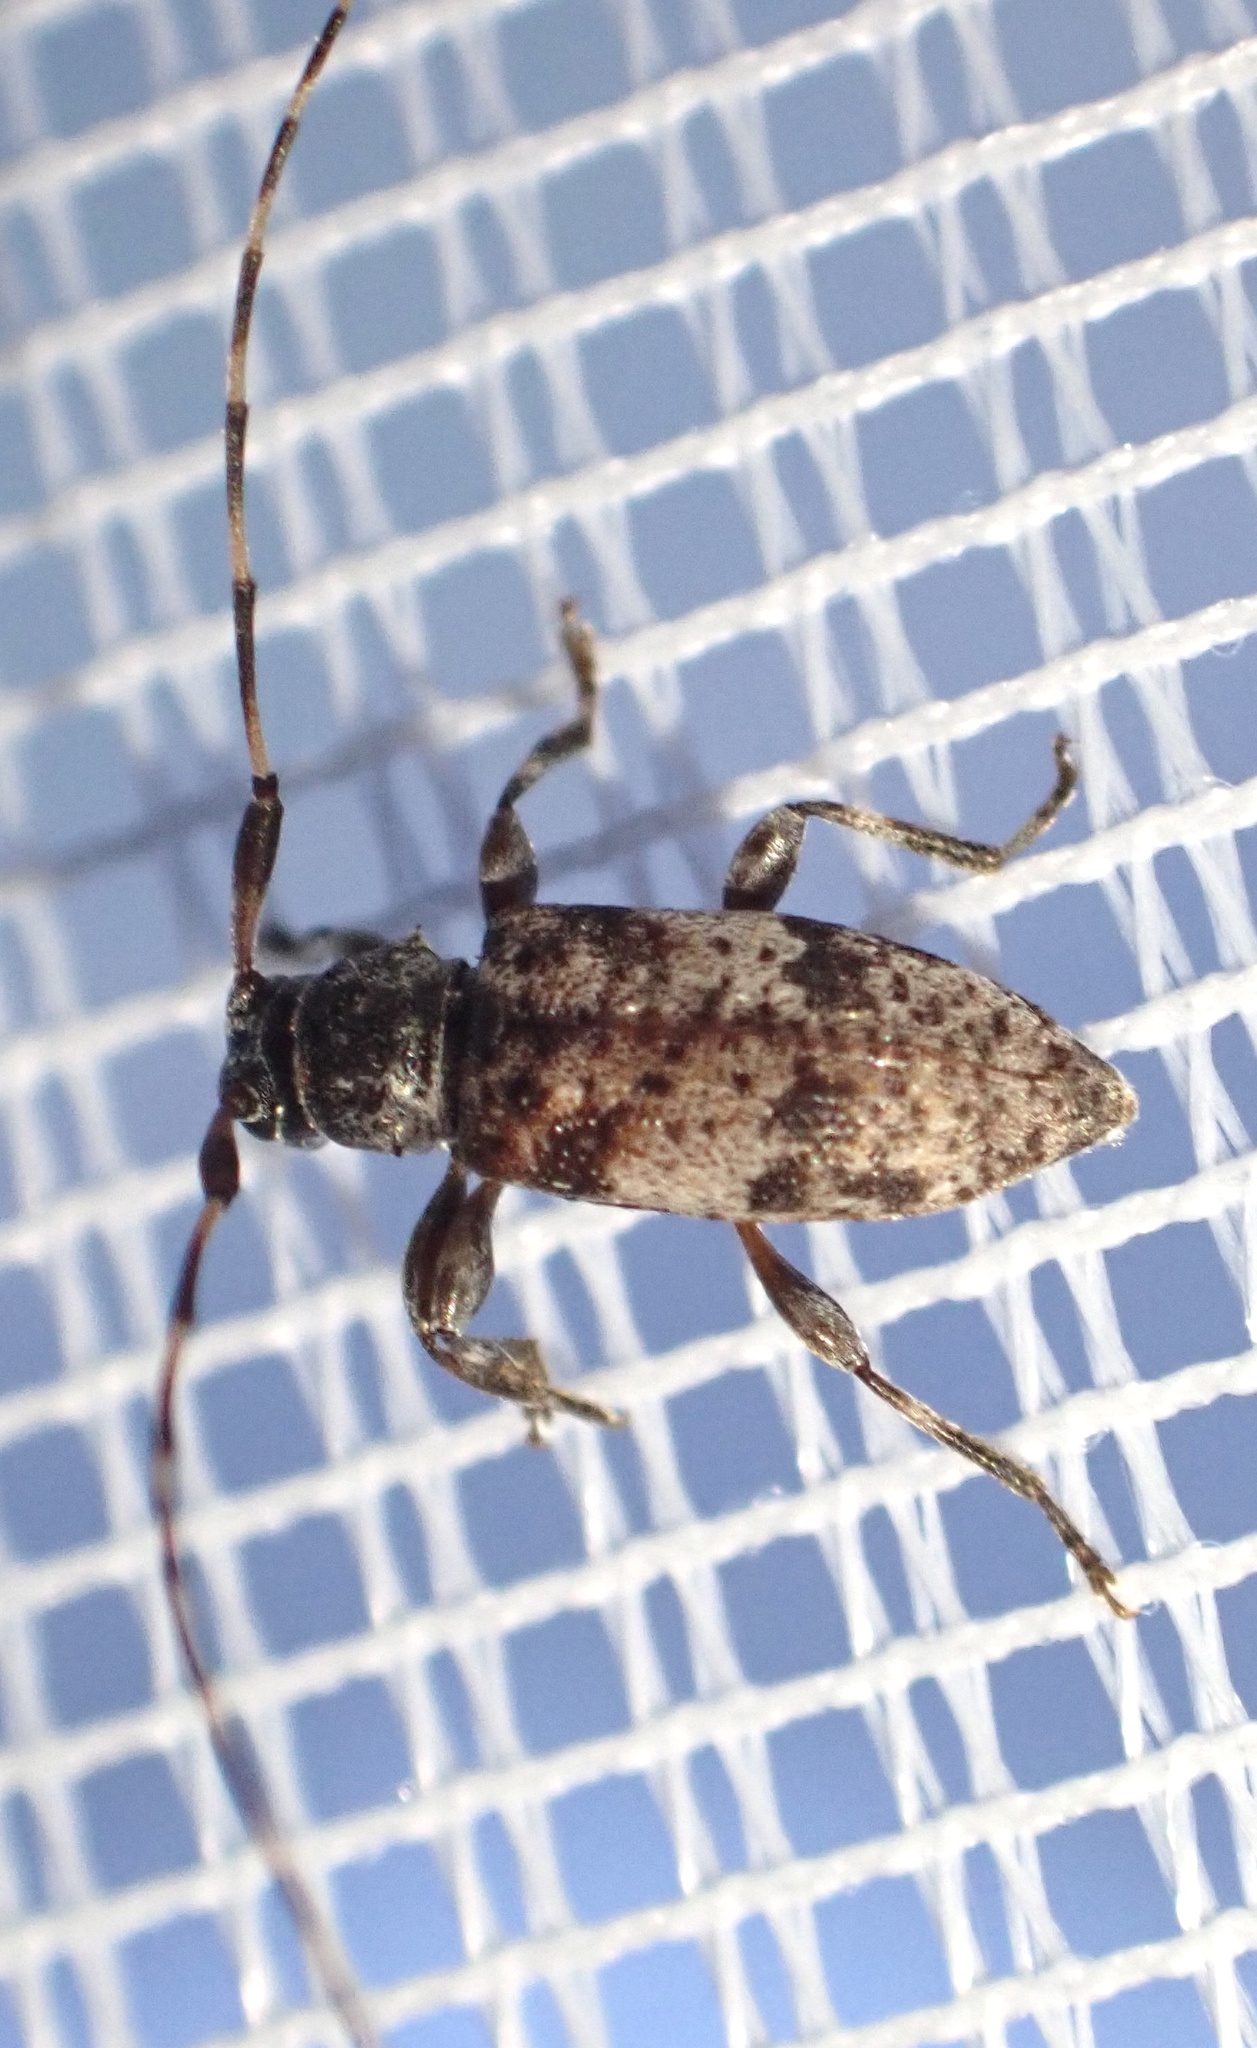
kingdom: Animalia
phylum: Arthropoda
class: Insecta
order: Coleoptera
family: Cerambycidae
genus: Leiopus
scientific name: Leiopus femoratus
